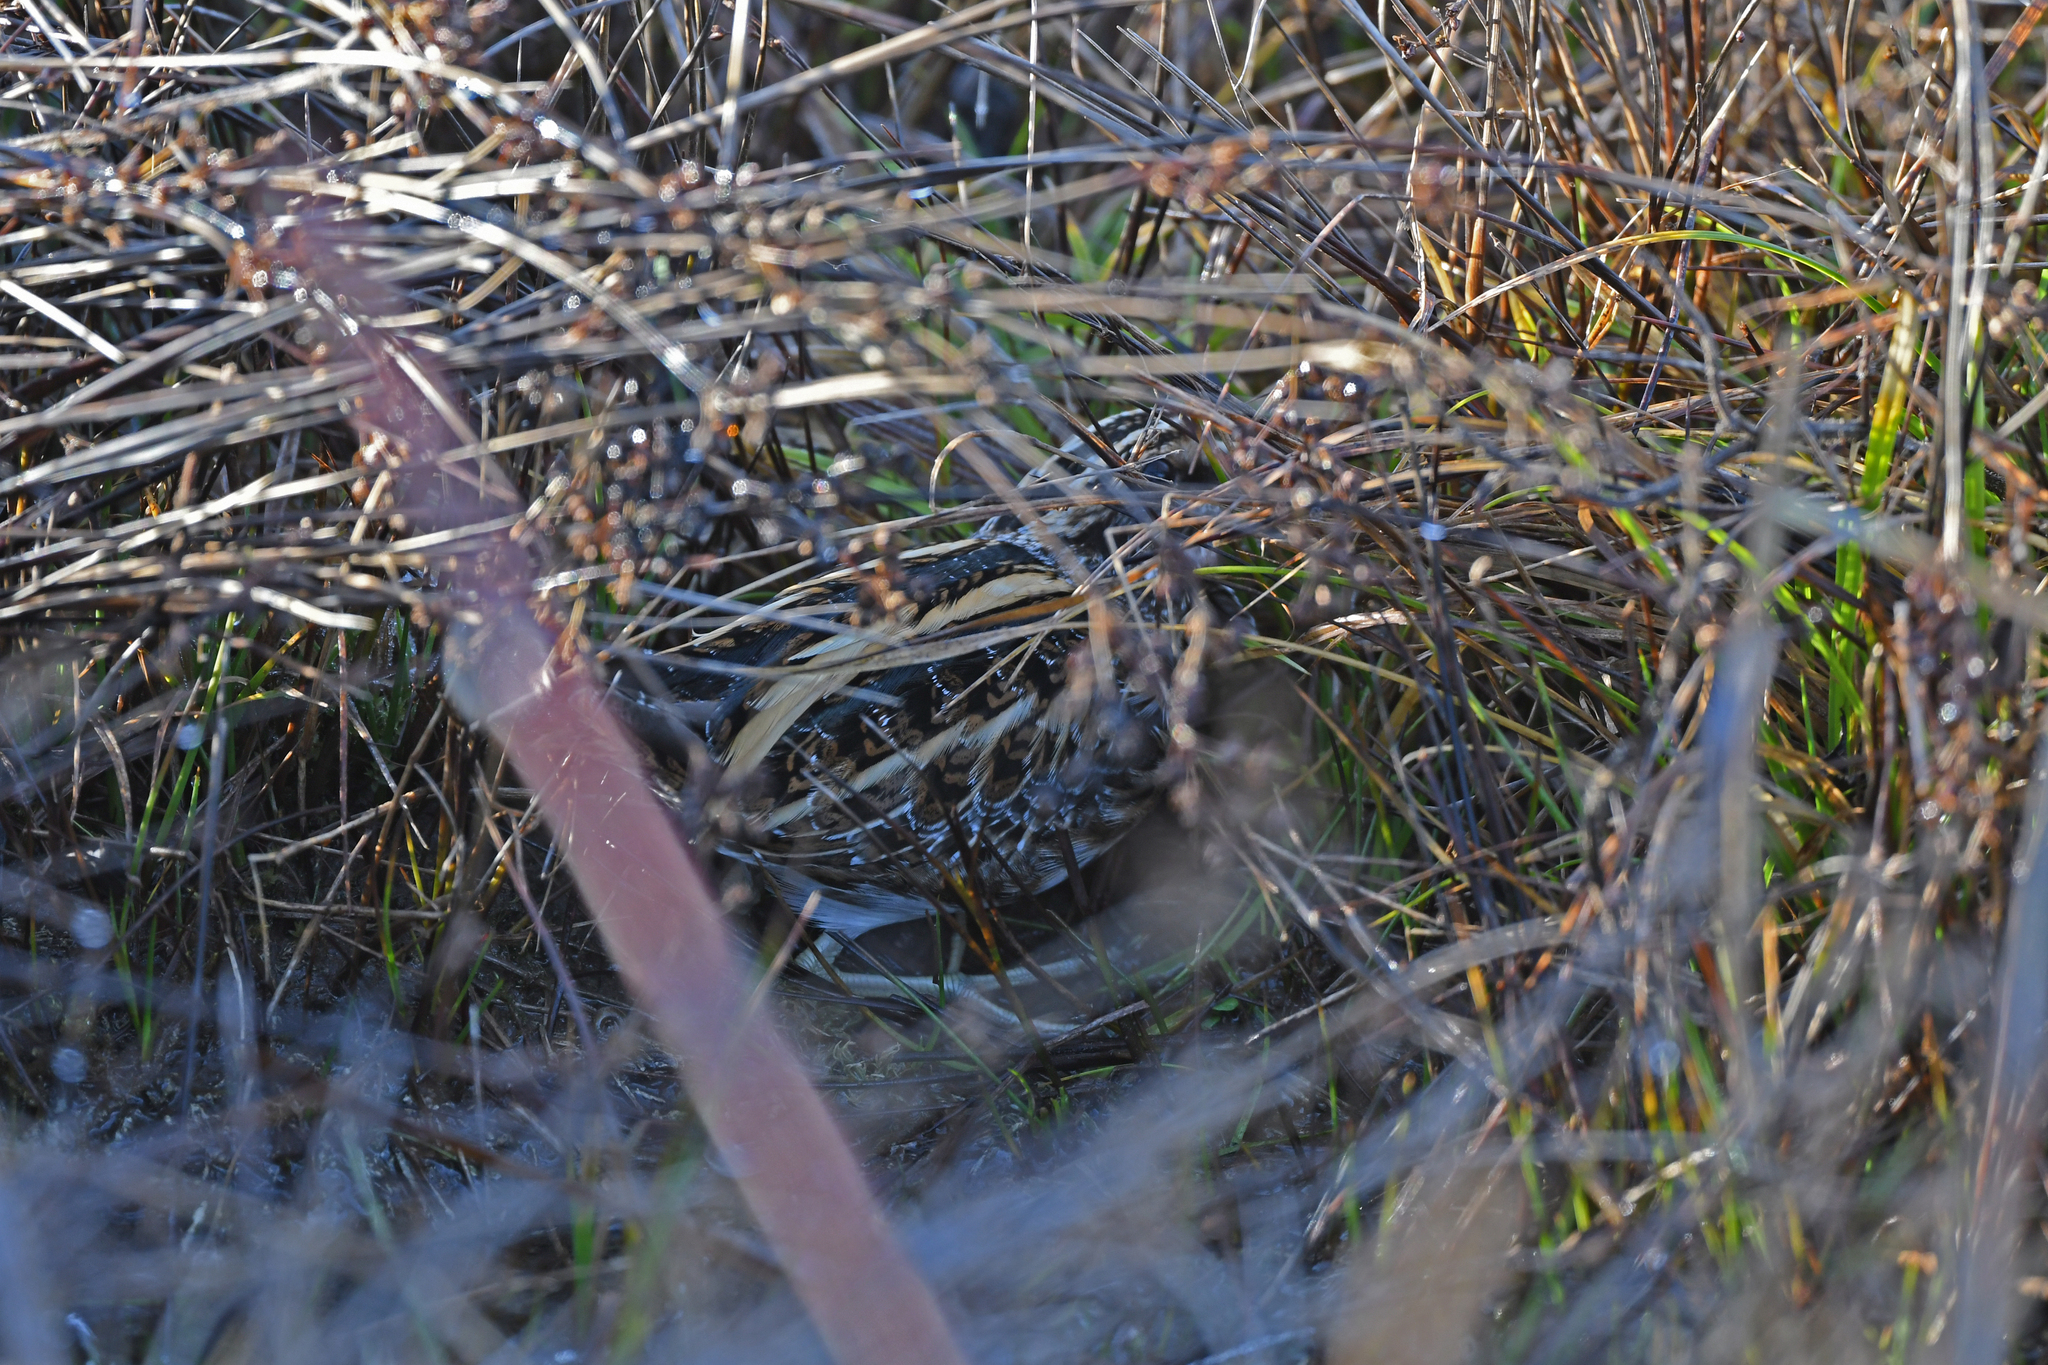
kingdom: Animalia
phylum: Chordata
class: Aves
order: Charadriiformes
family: Scolopacidae
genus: Lymnocryptes
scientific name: Lymnocryptes minimus
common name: Jack snipe
